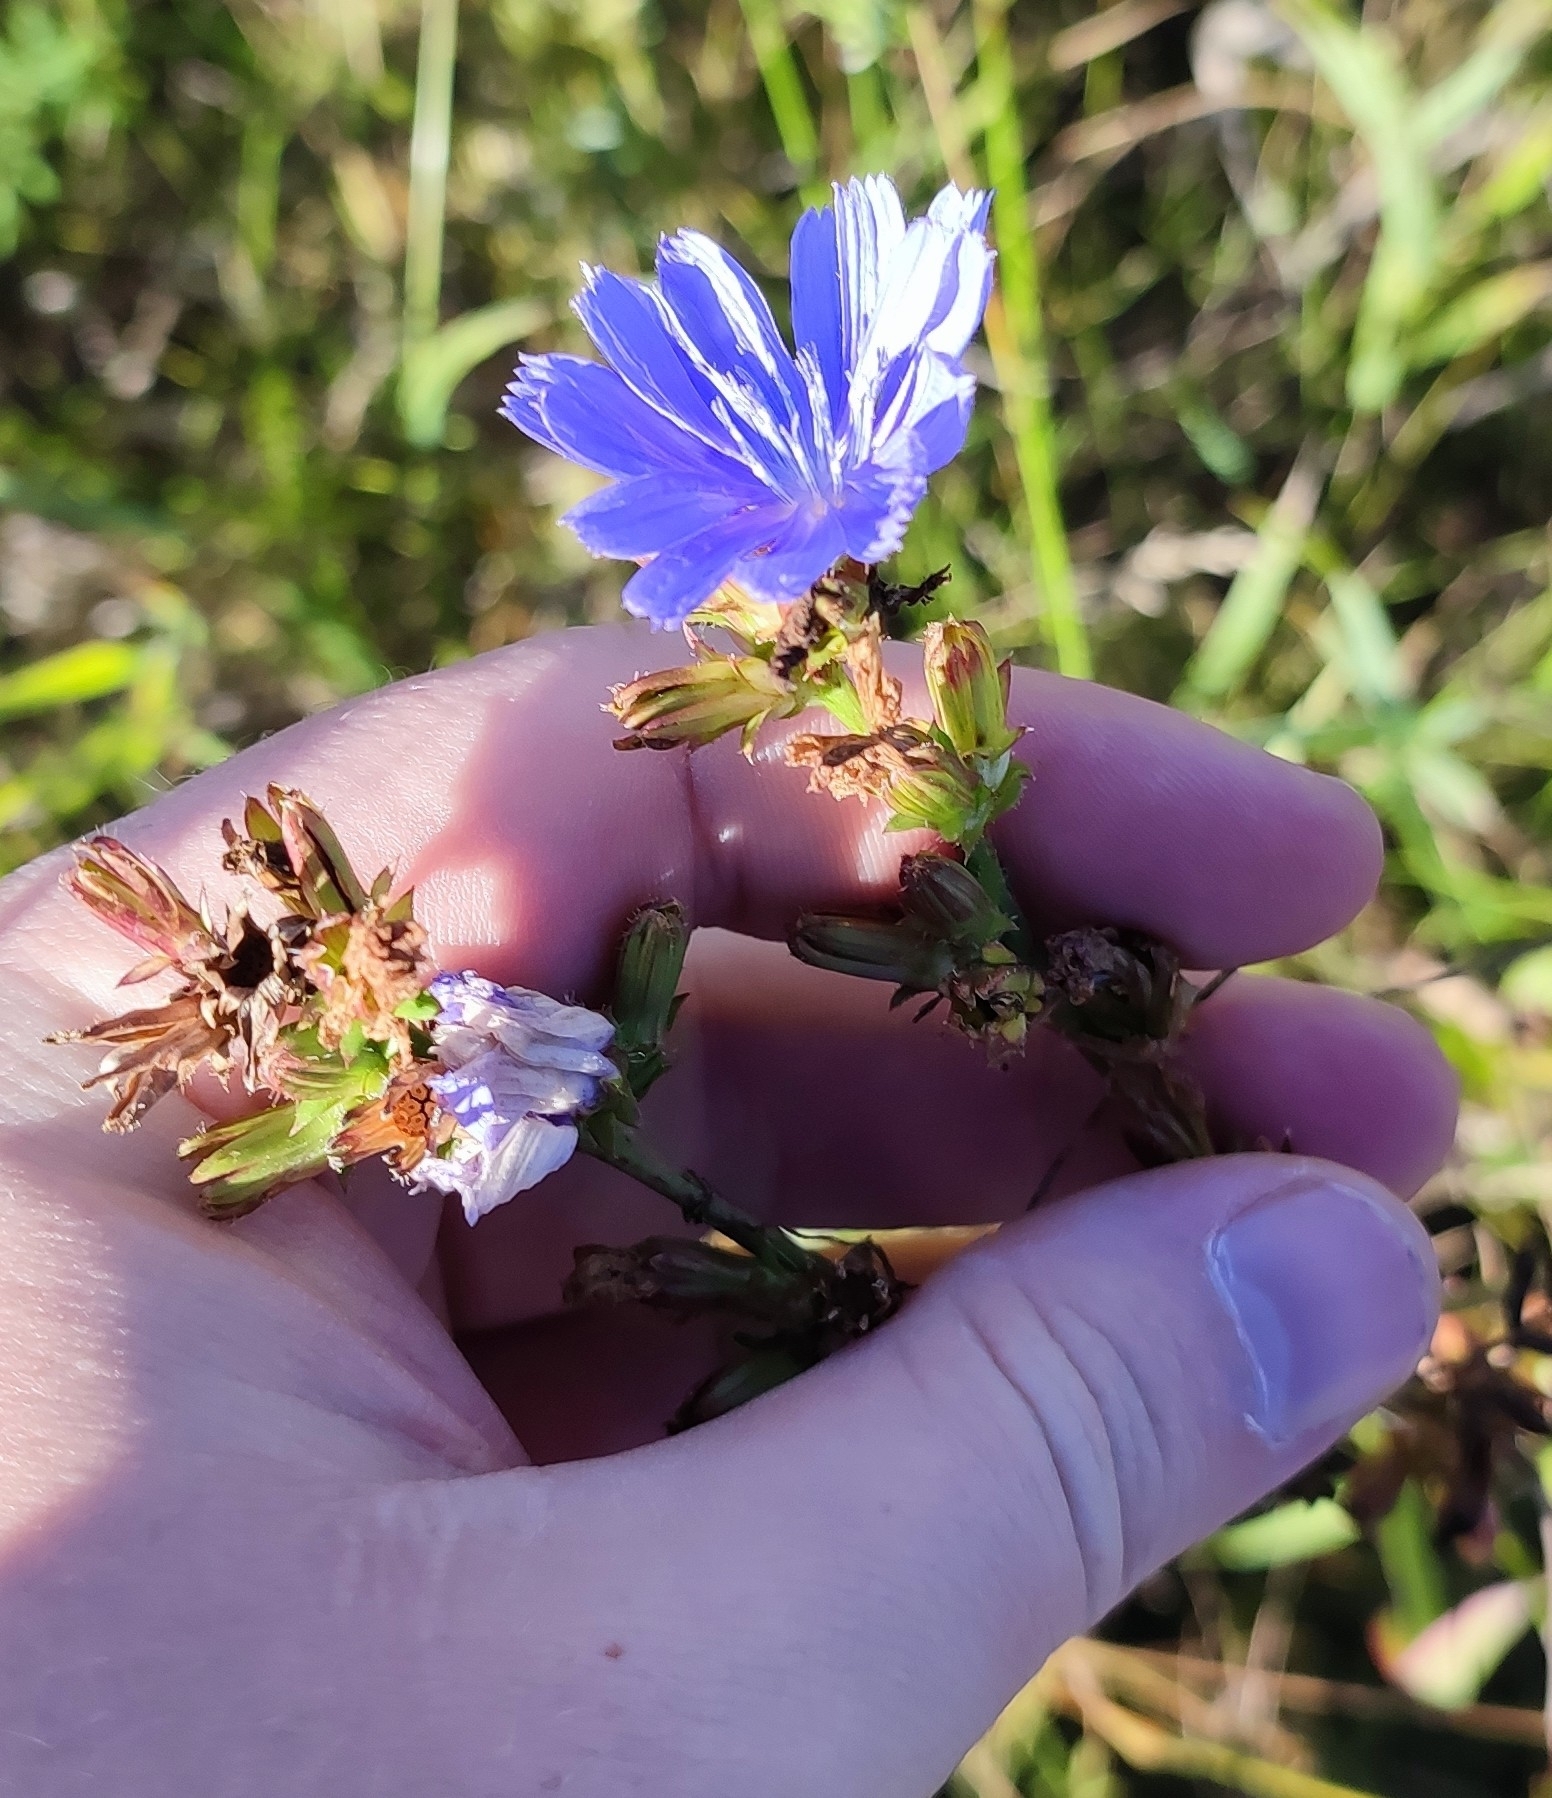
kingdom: Plantae
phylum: Tracheophyta
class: Magnoliopsida
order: Asterales
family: Asteraceae
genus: Cichorium
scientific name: Cichorium intybus
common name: Chicory
